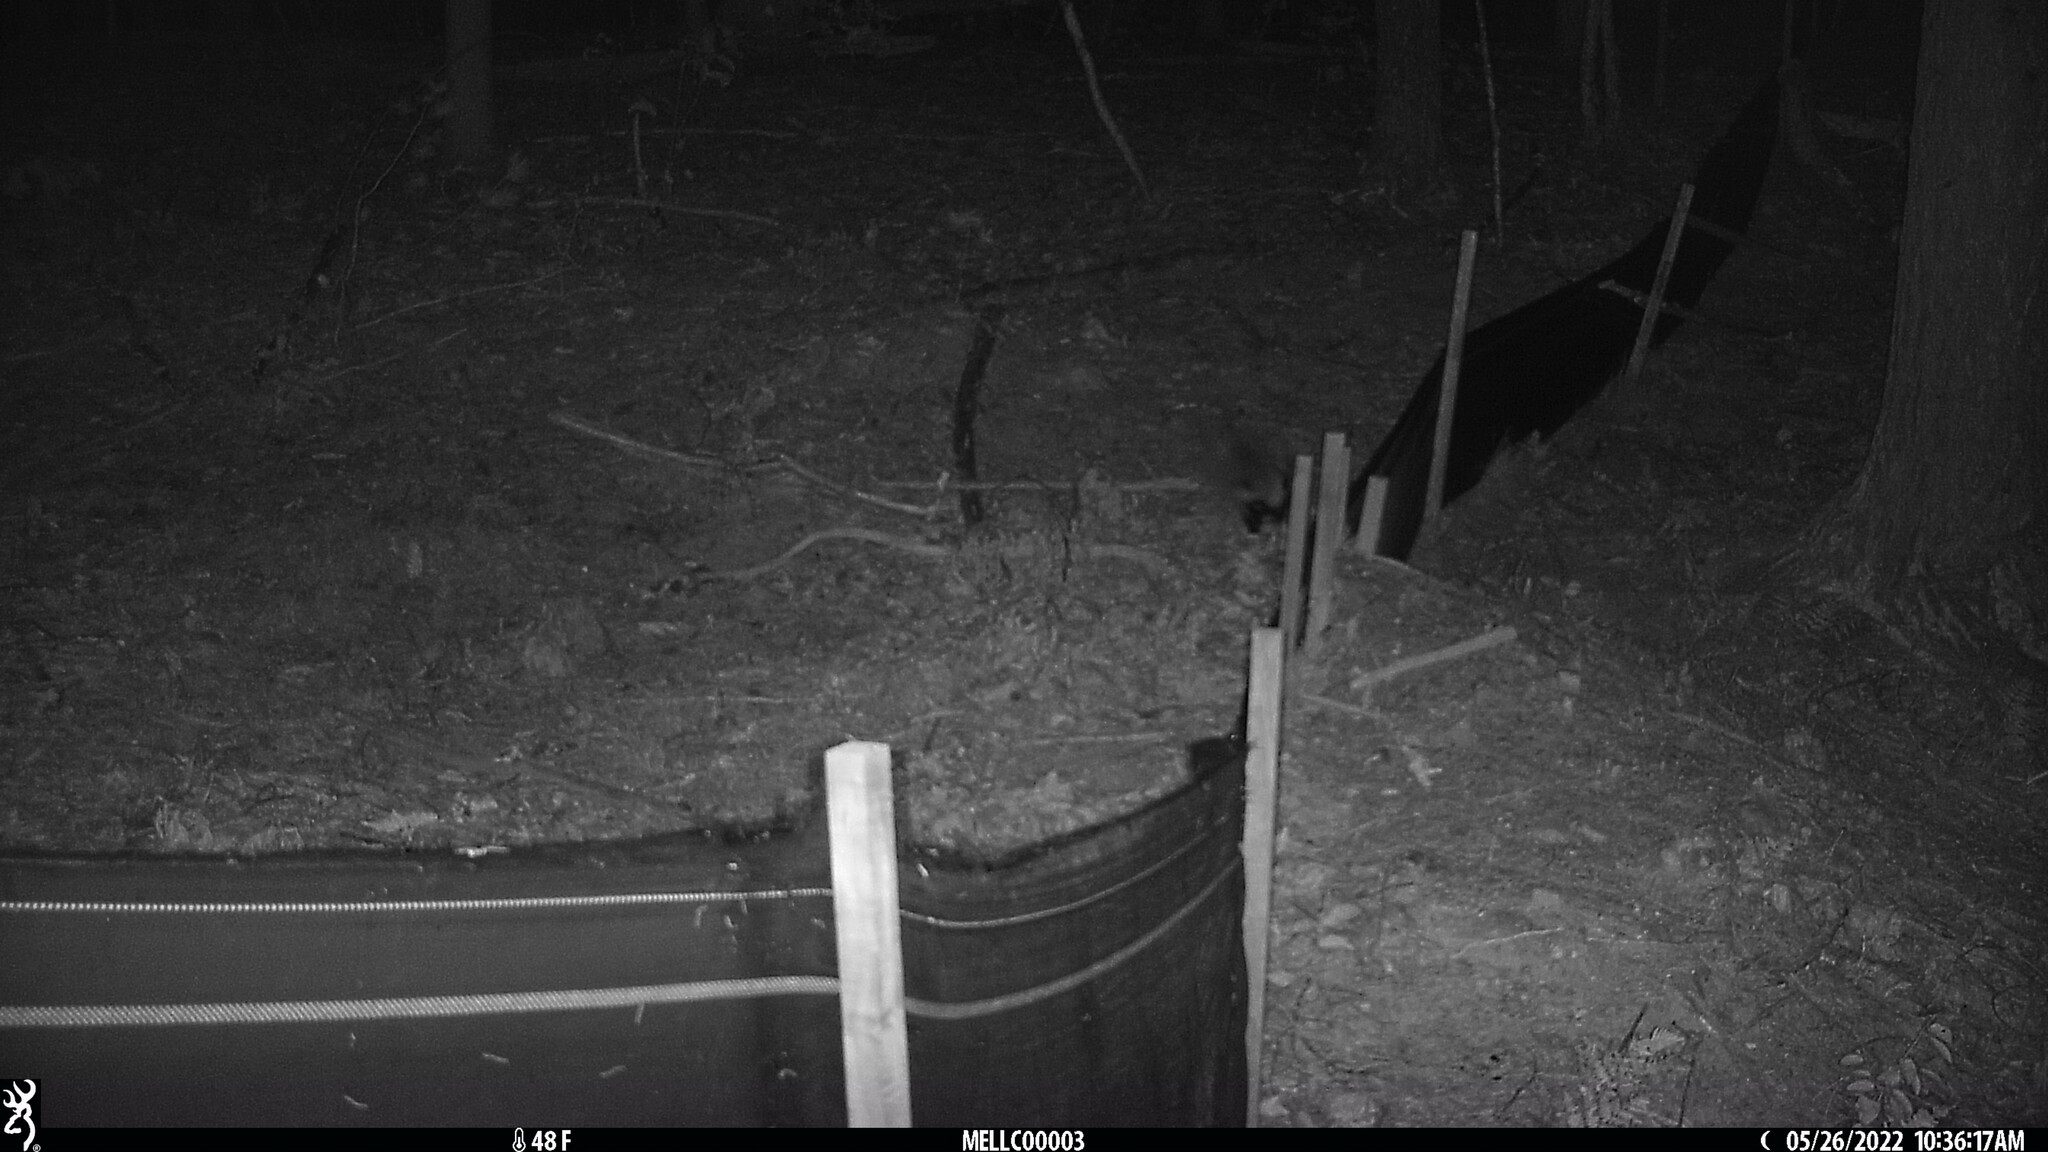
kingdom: Animalia
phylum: Chordata
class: Mammalia
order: Carnivora
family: Mephitidae
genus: Mephitis
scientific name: Mephitis mephitis
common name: Striped skunk
